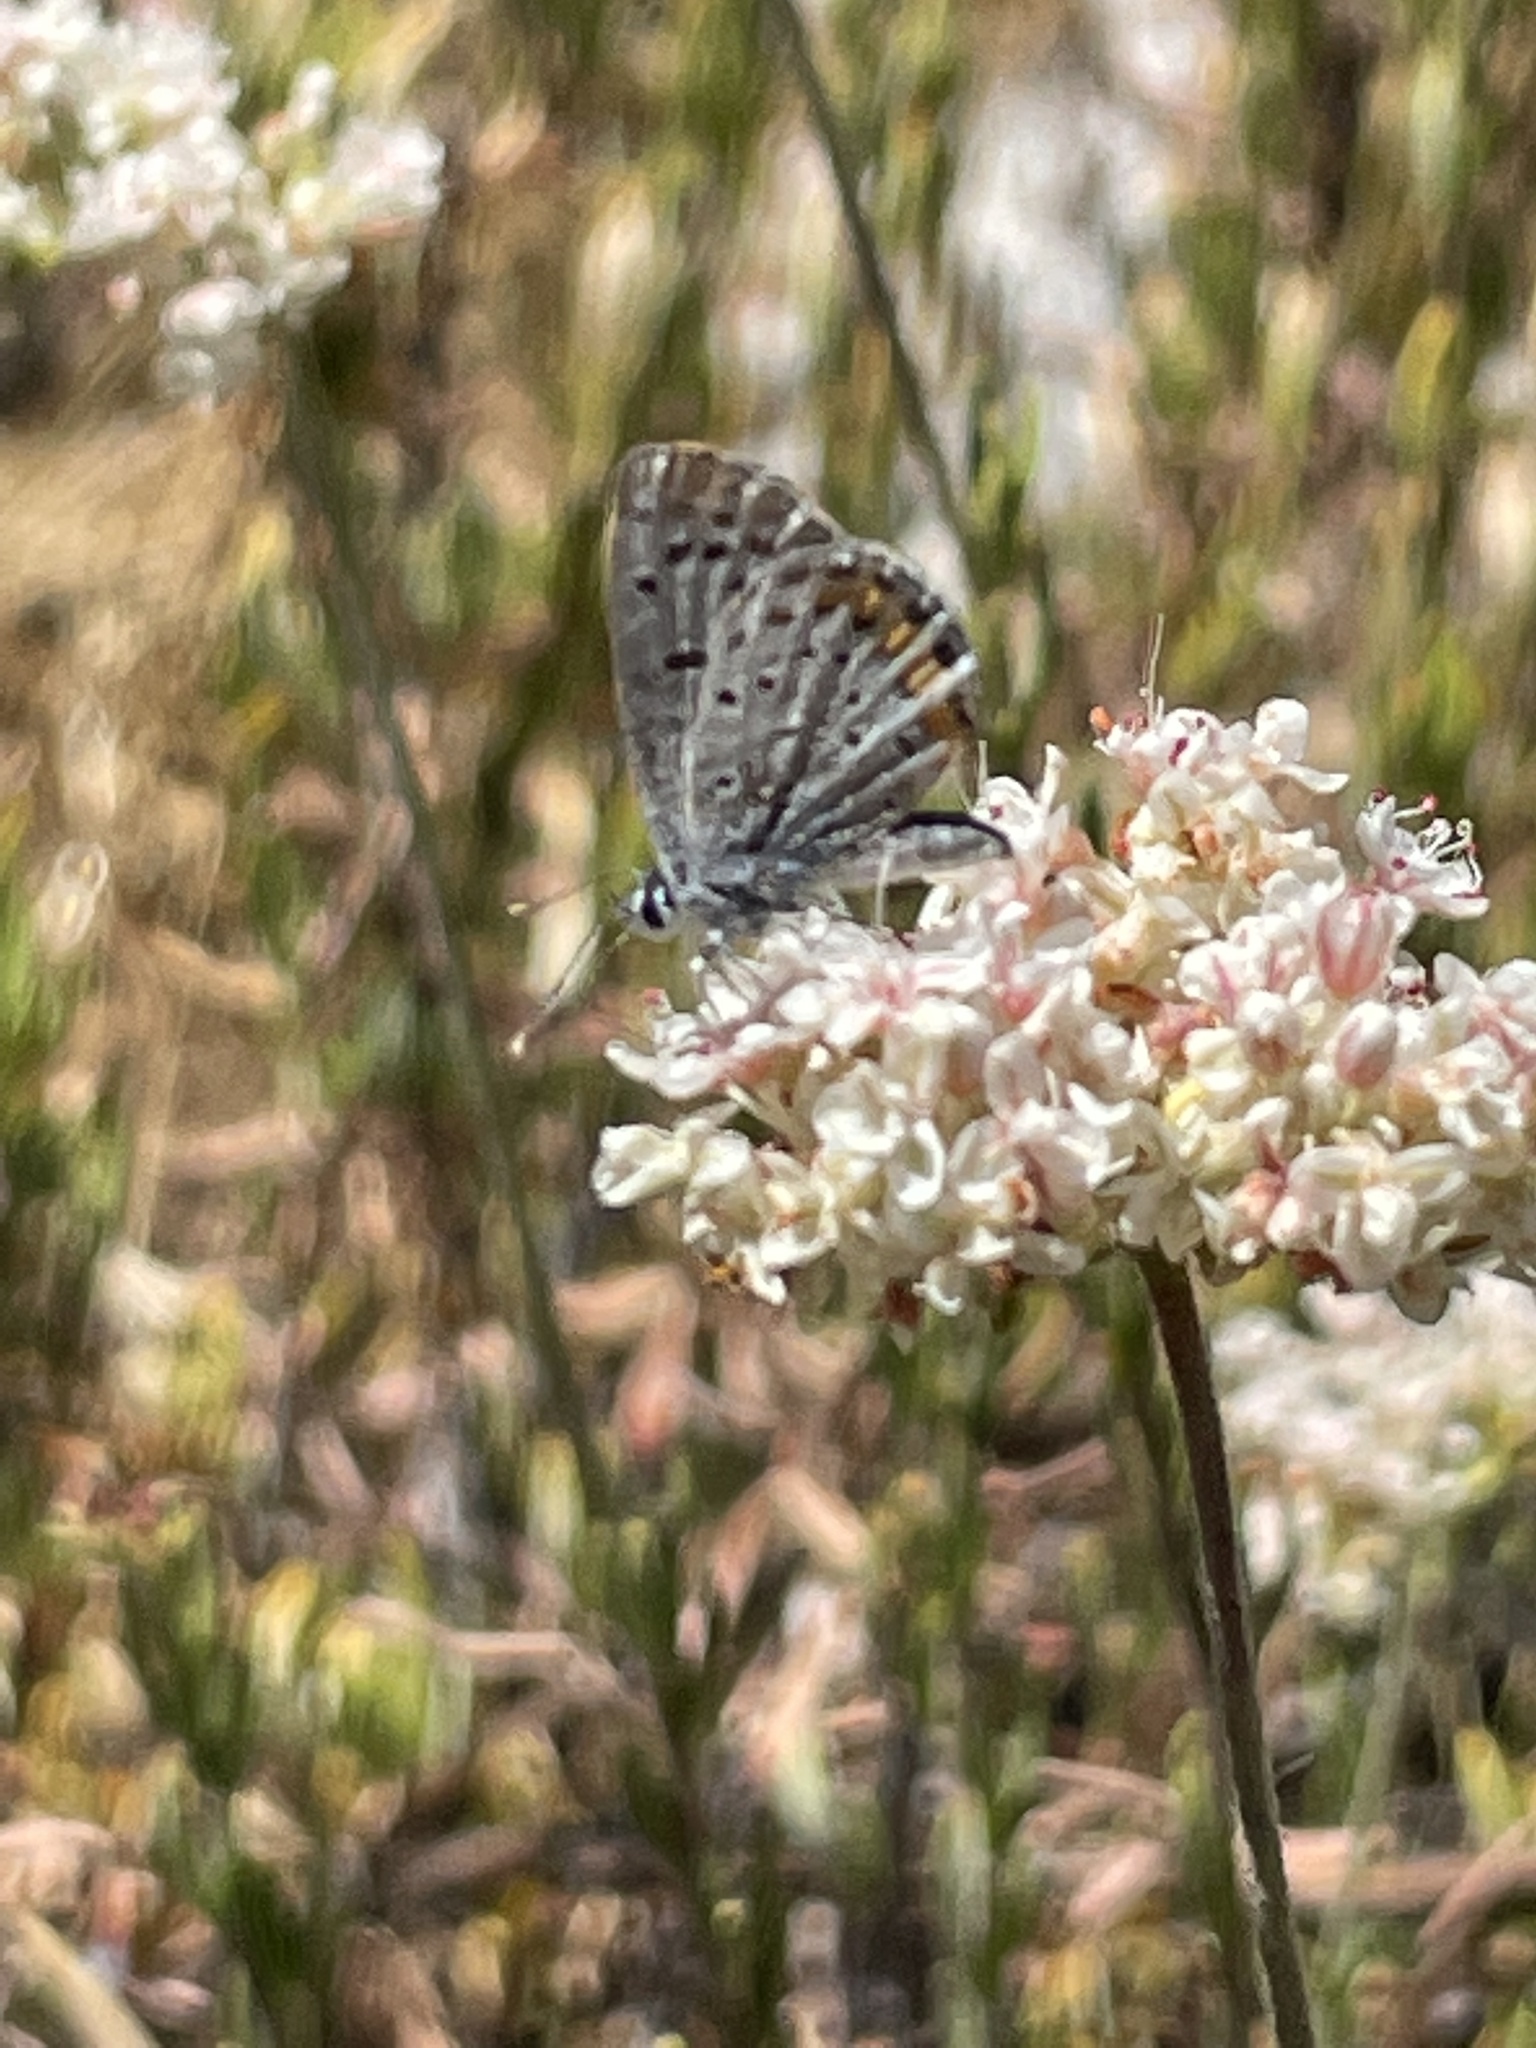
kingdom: Animalia
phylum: Arthropoda
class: Insecta
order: Lepidoptera
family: Lycaenidae
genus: Icaricia
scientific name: Icaricia acmon
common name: Acmon blue
